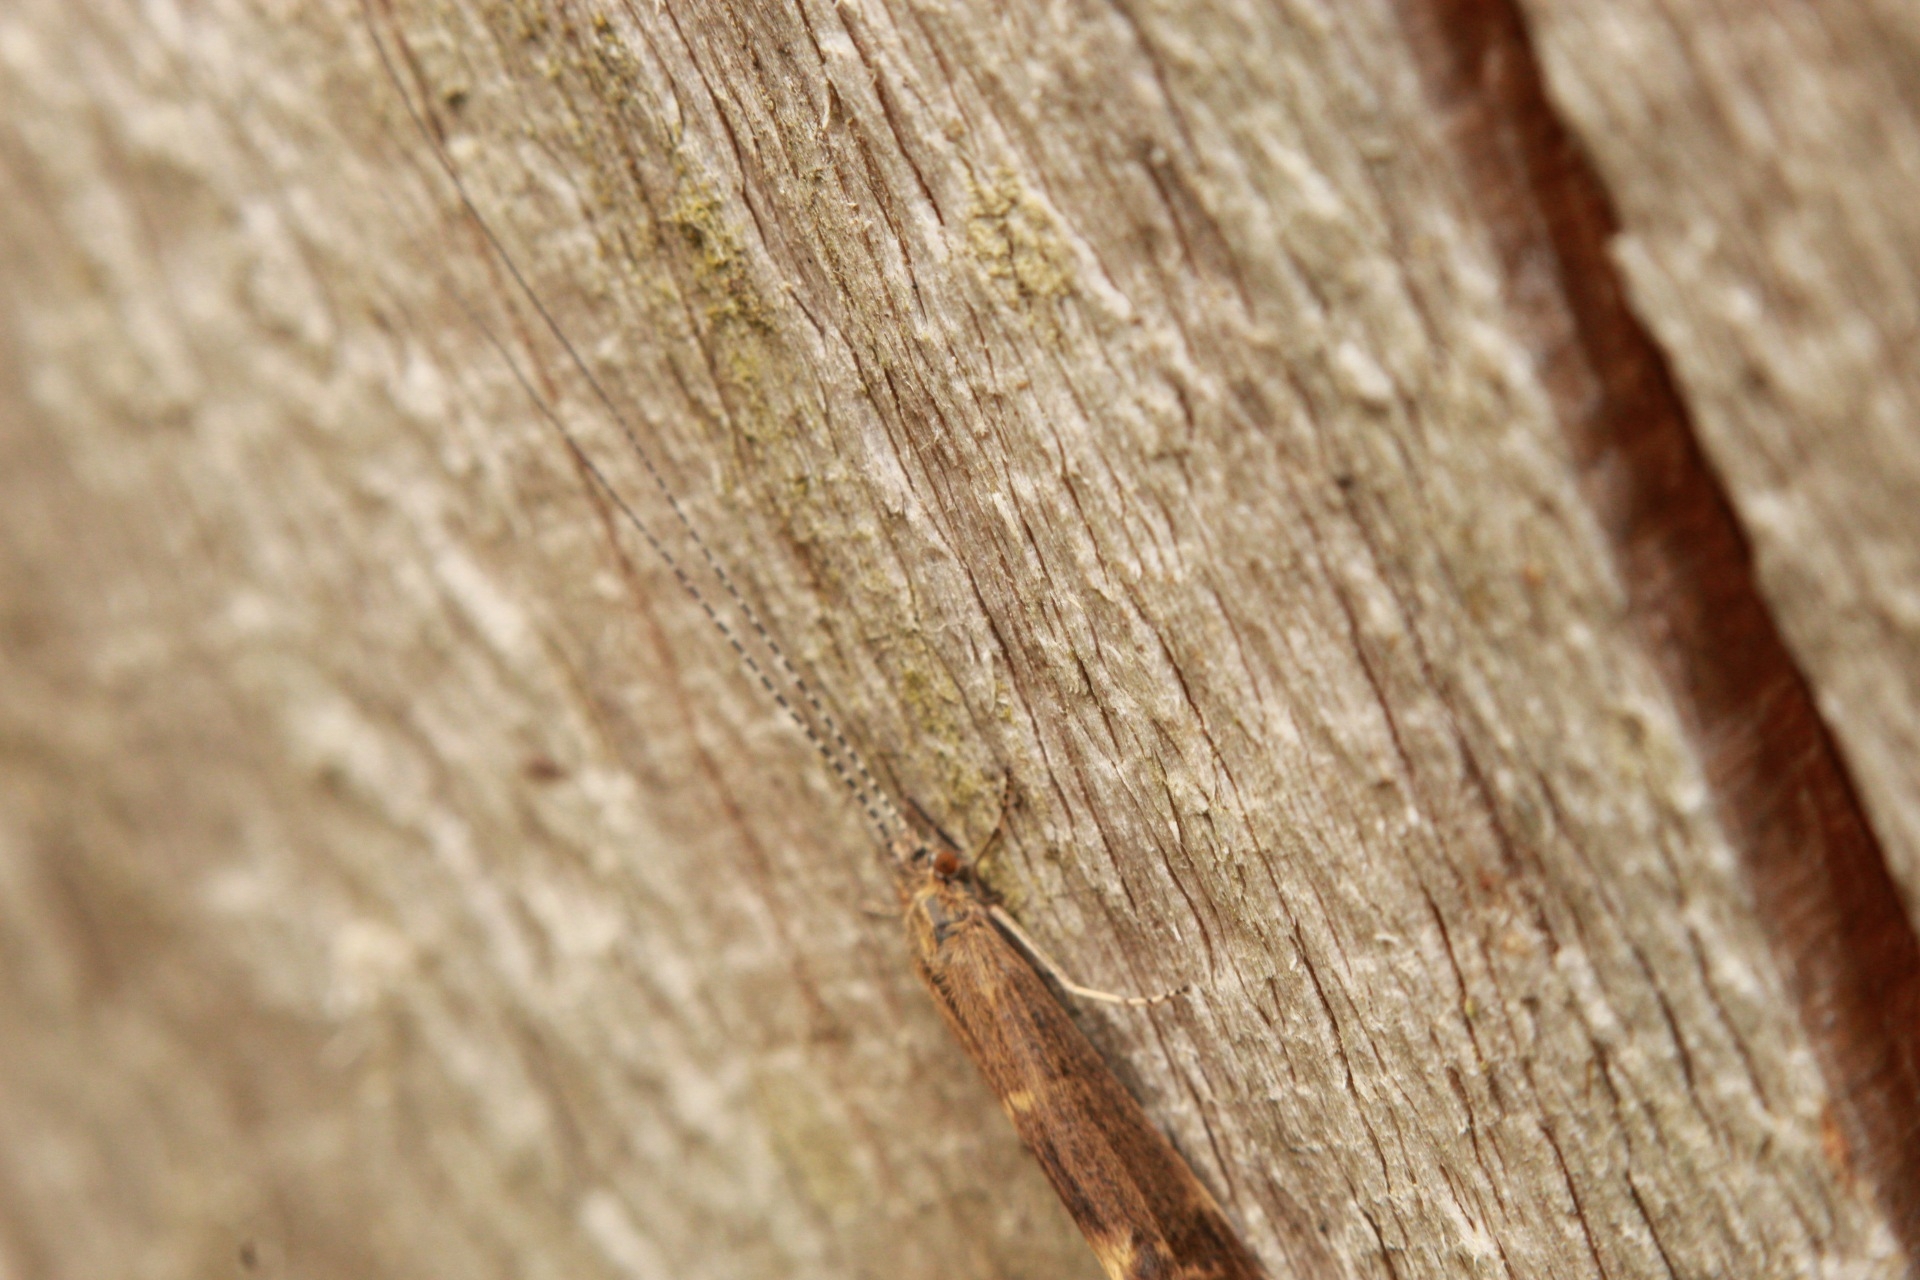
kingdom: Animalia
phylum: Arthropoda
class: Insecta
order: Trichoptera
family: Leptoceridae
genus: Athripsodes
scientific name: Athripsodes cinereus
